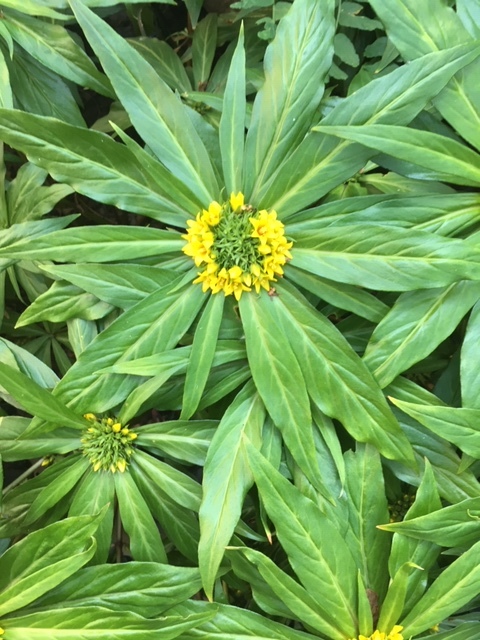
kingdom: Plantae
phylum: Tracheophyta
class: Magnoliopsida
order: Malvales
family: Thymelaeaceae
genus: Daphne
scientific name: Daphne laureola
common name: Spurge-laurel
